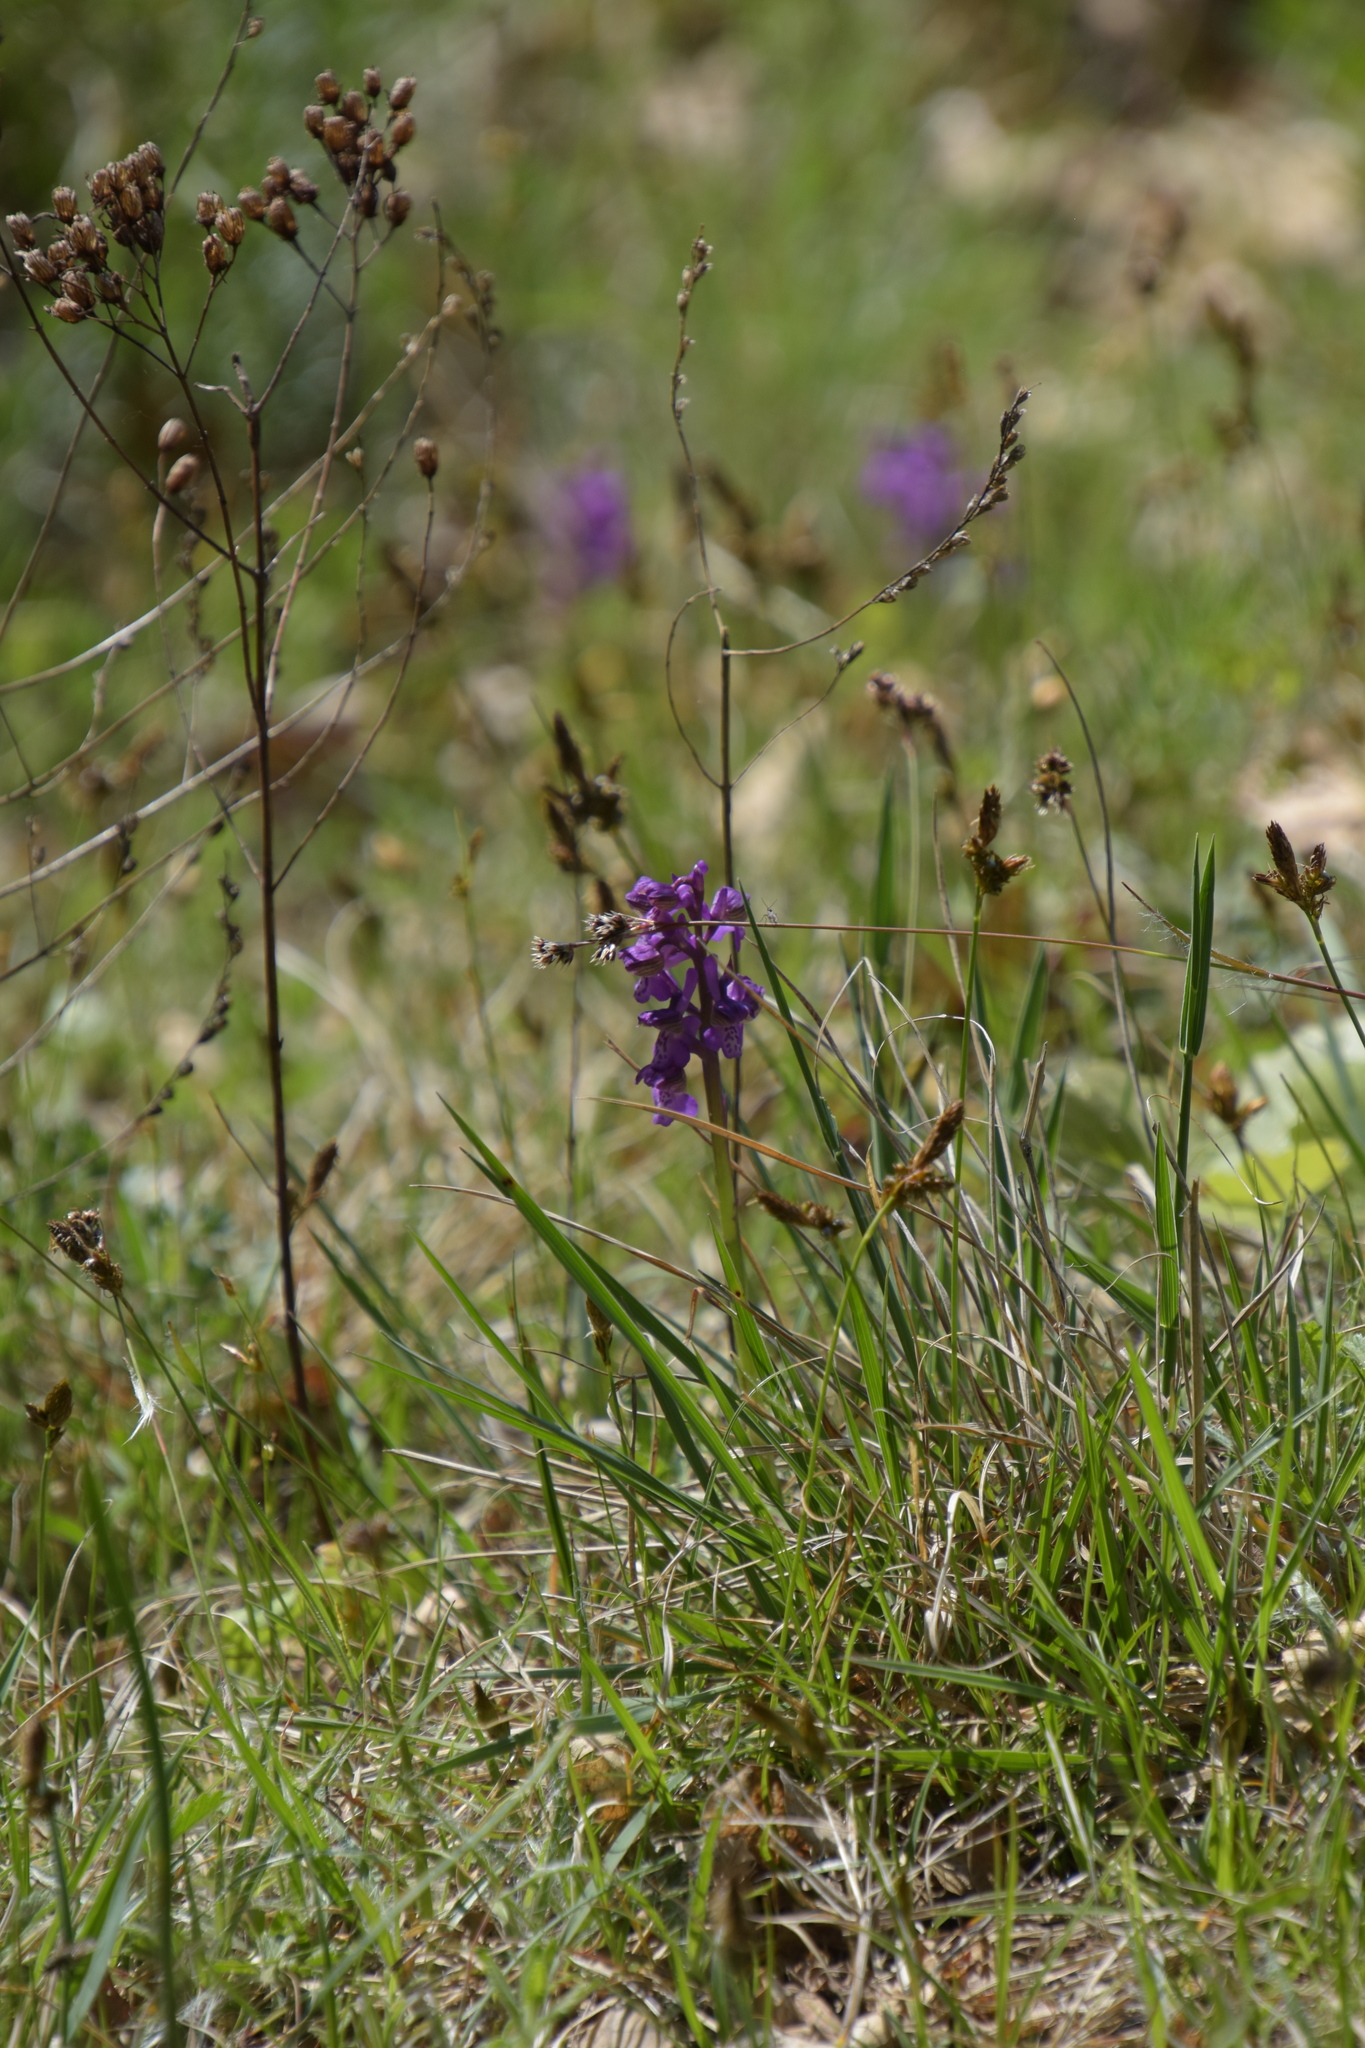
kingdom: Plantae
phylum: Tracheophyta
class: Liliopsida
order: Asparagales
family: Orchidaceae
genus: Anacamptis
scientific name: Anacamptis morio
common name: Green-winged orchid
